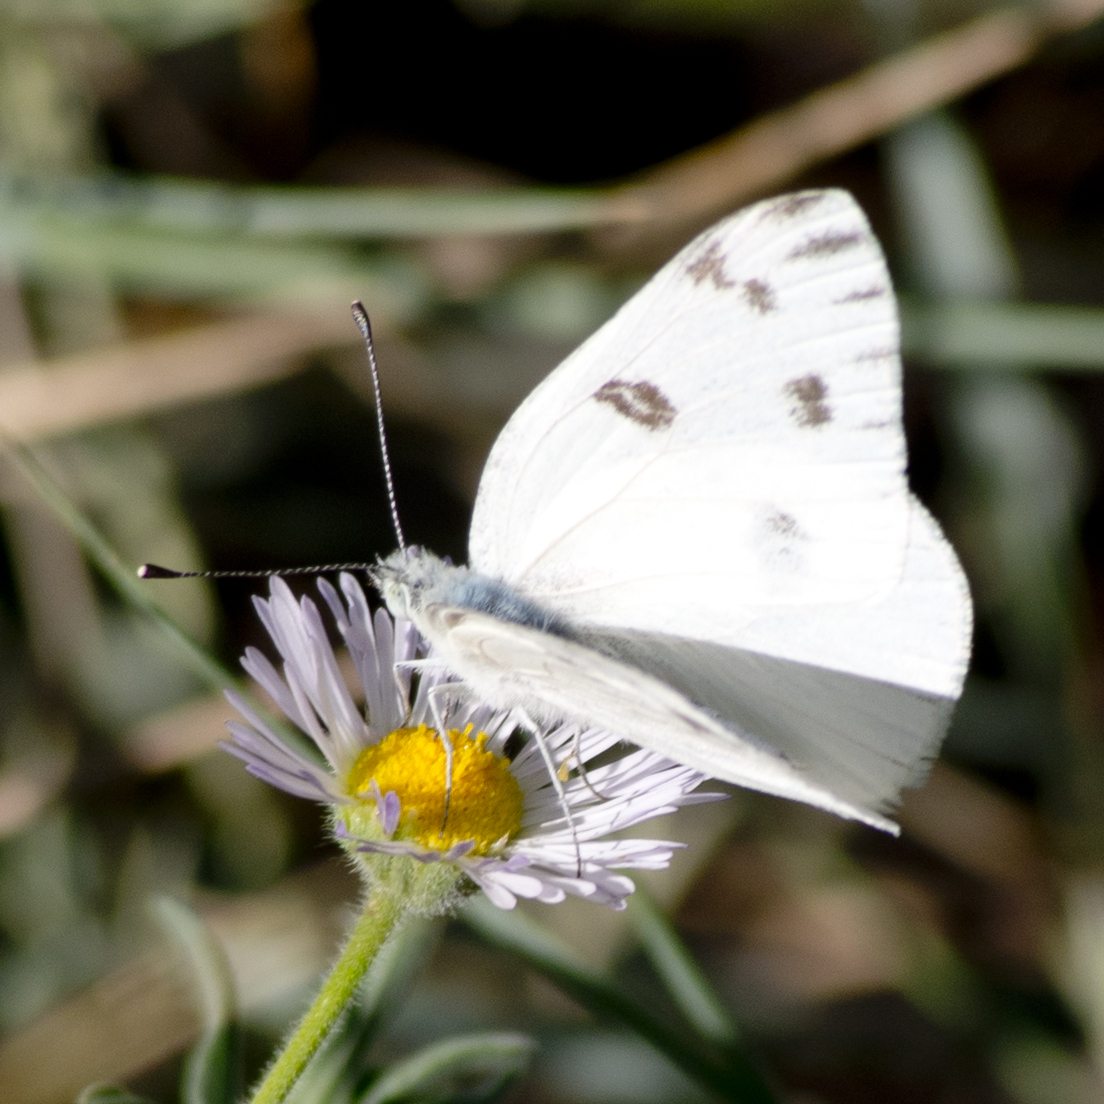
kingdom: Animalia
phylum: Arthropoda
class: Insecta
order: Lepidoptera
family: Pieridae
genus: Pontia
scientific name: Pontia protodice
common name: Checkered white
